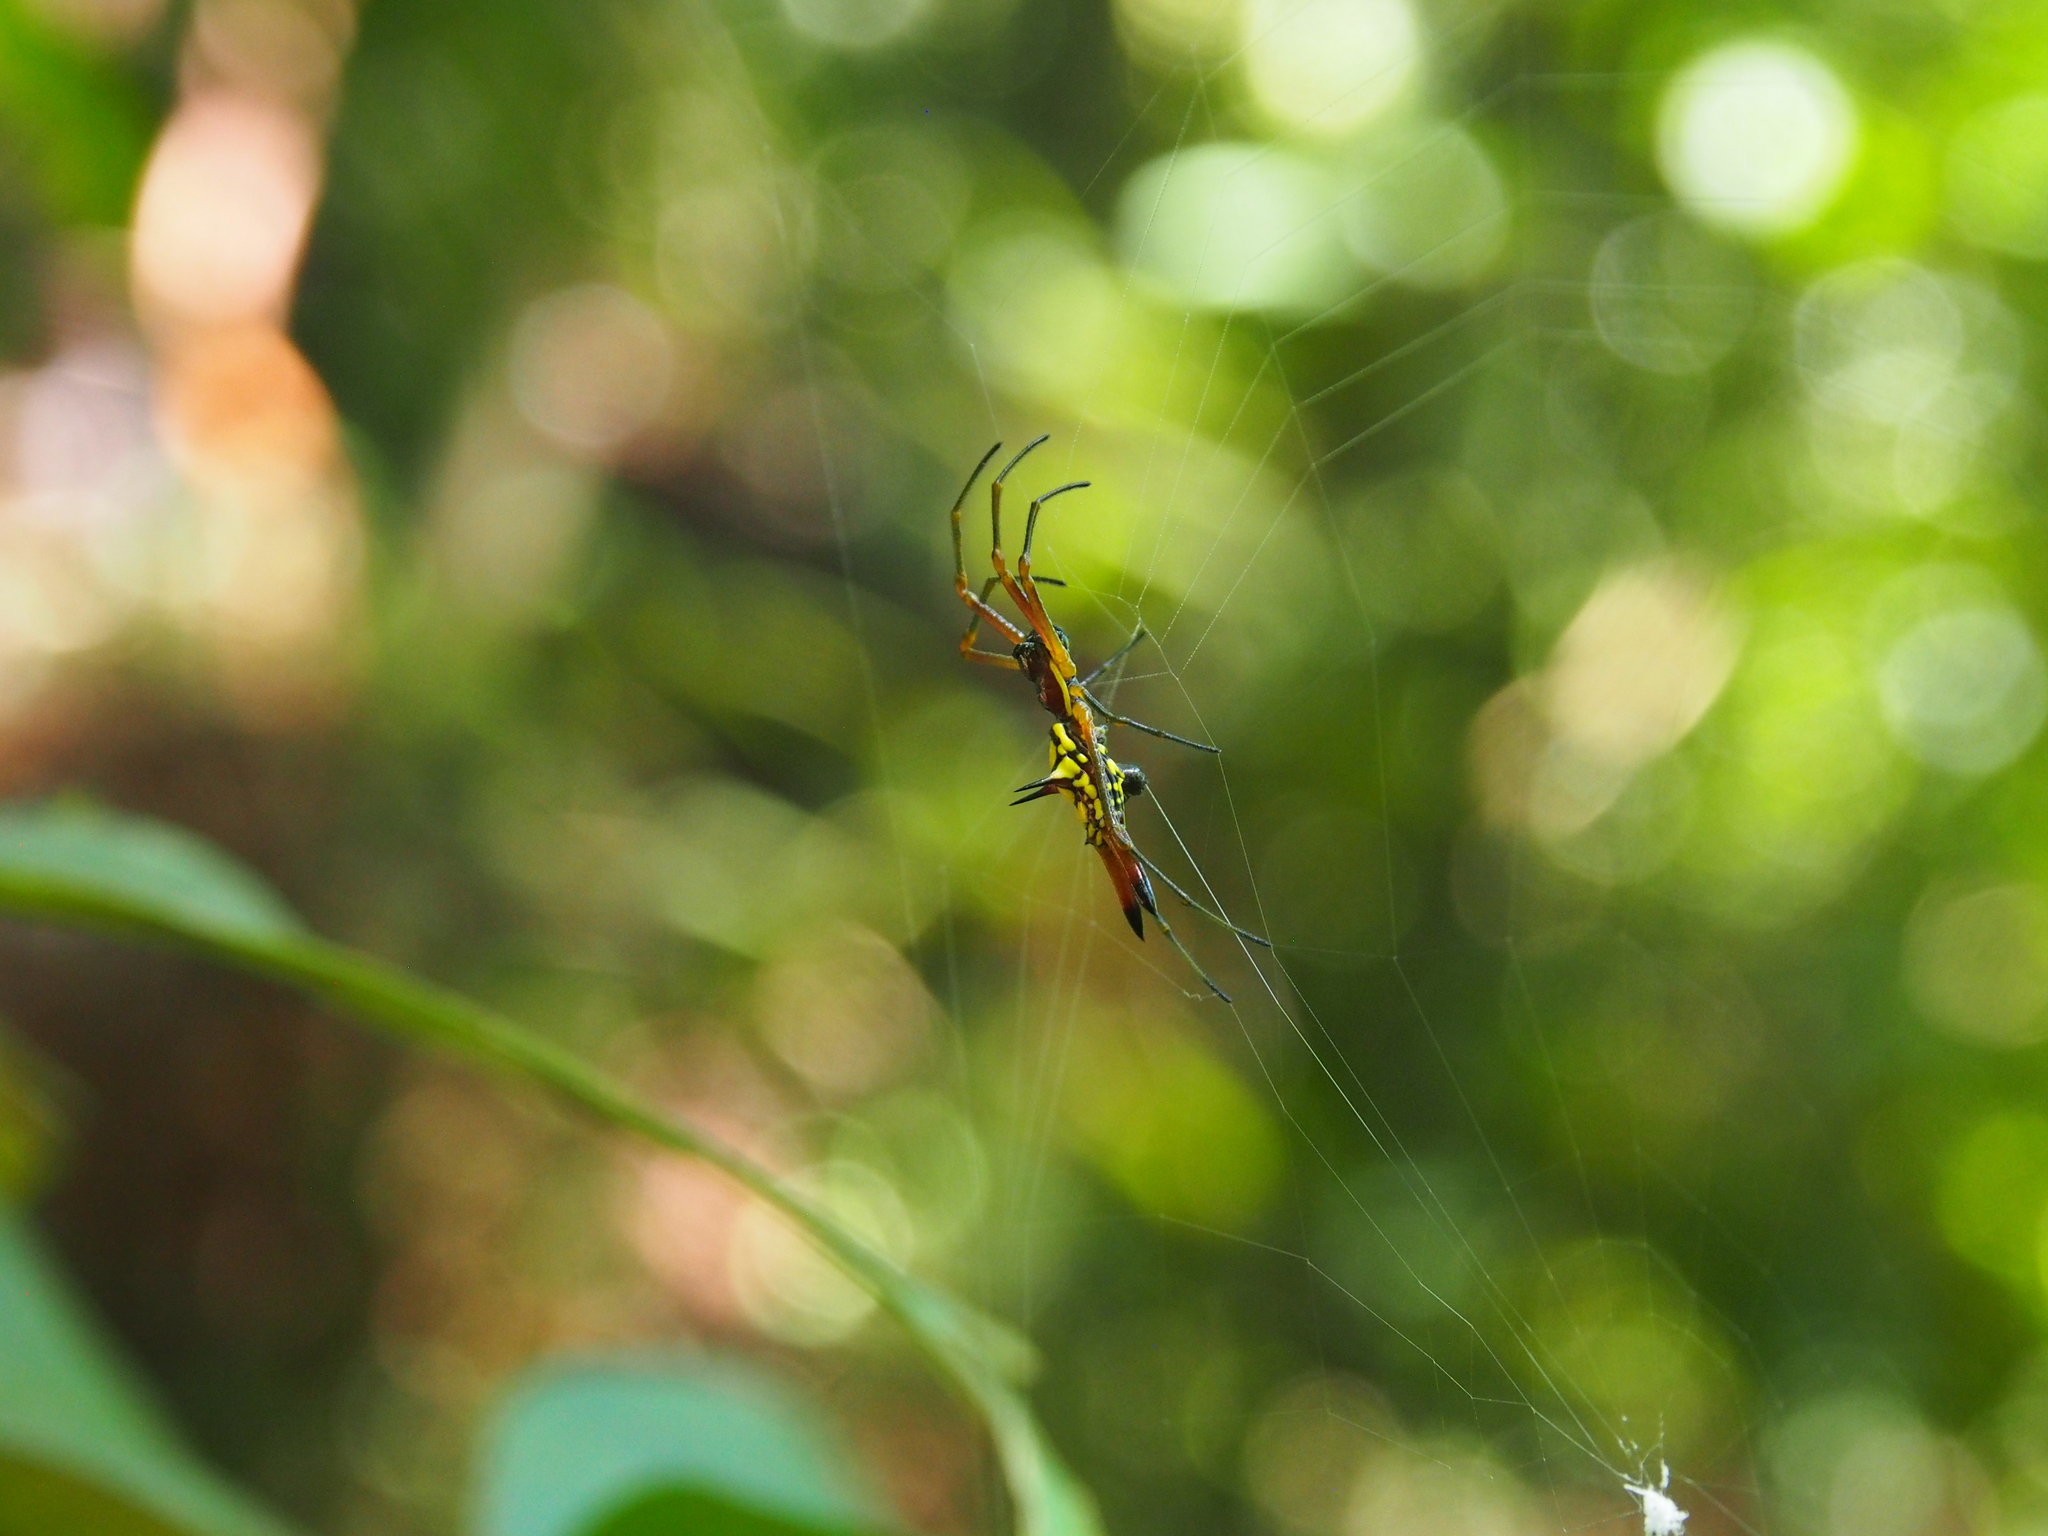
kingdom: Animalia
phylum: Arthropoda
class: Arachnida
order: Araneae
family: Araneidae
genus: Micrathena
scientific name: Micrathena brevipes
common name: Orb weavers
